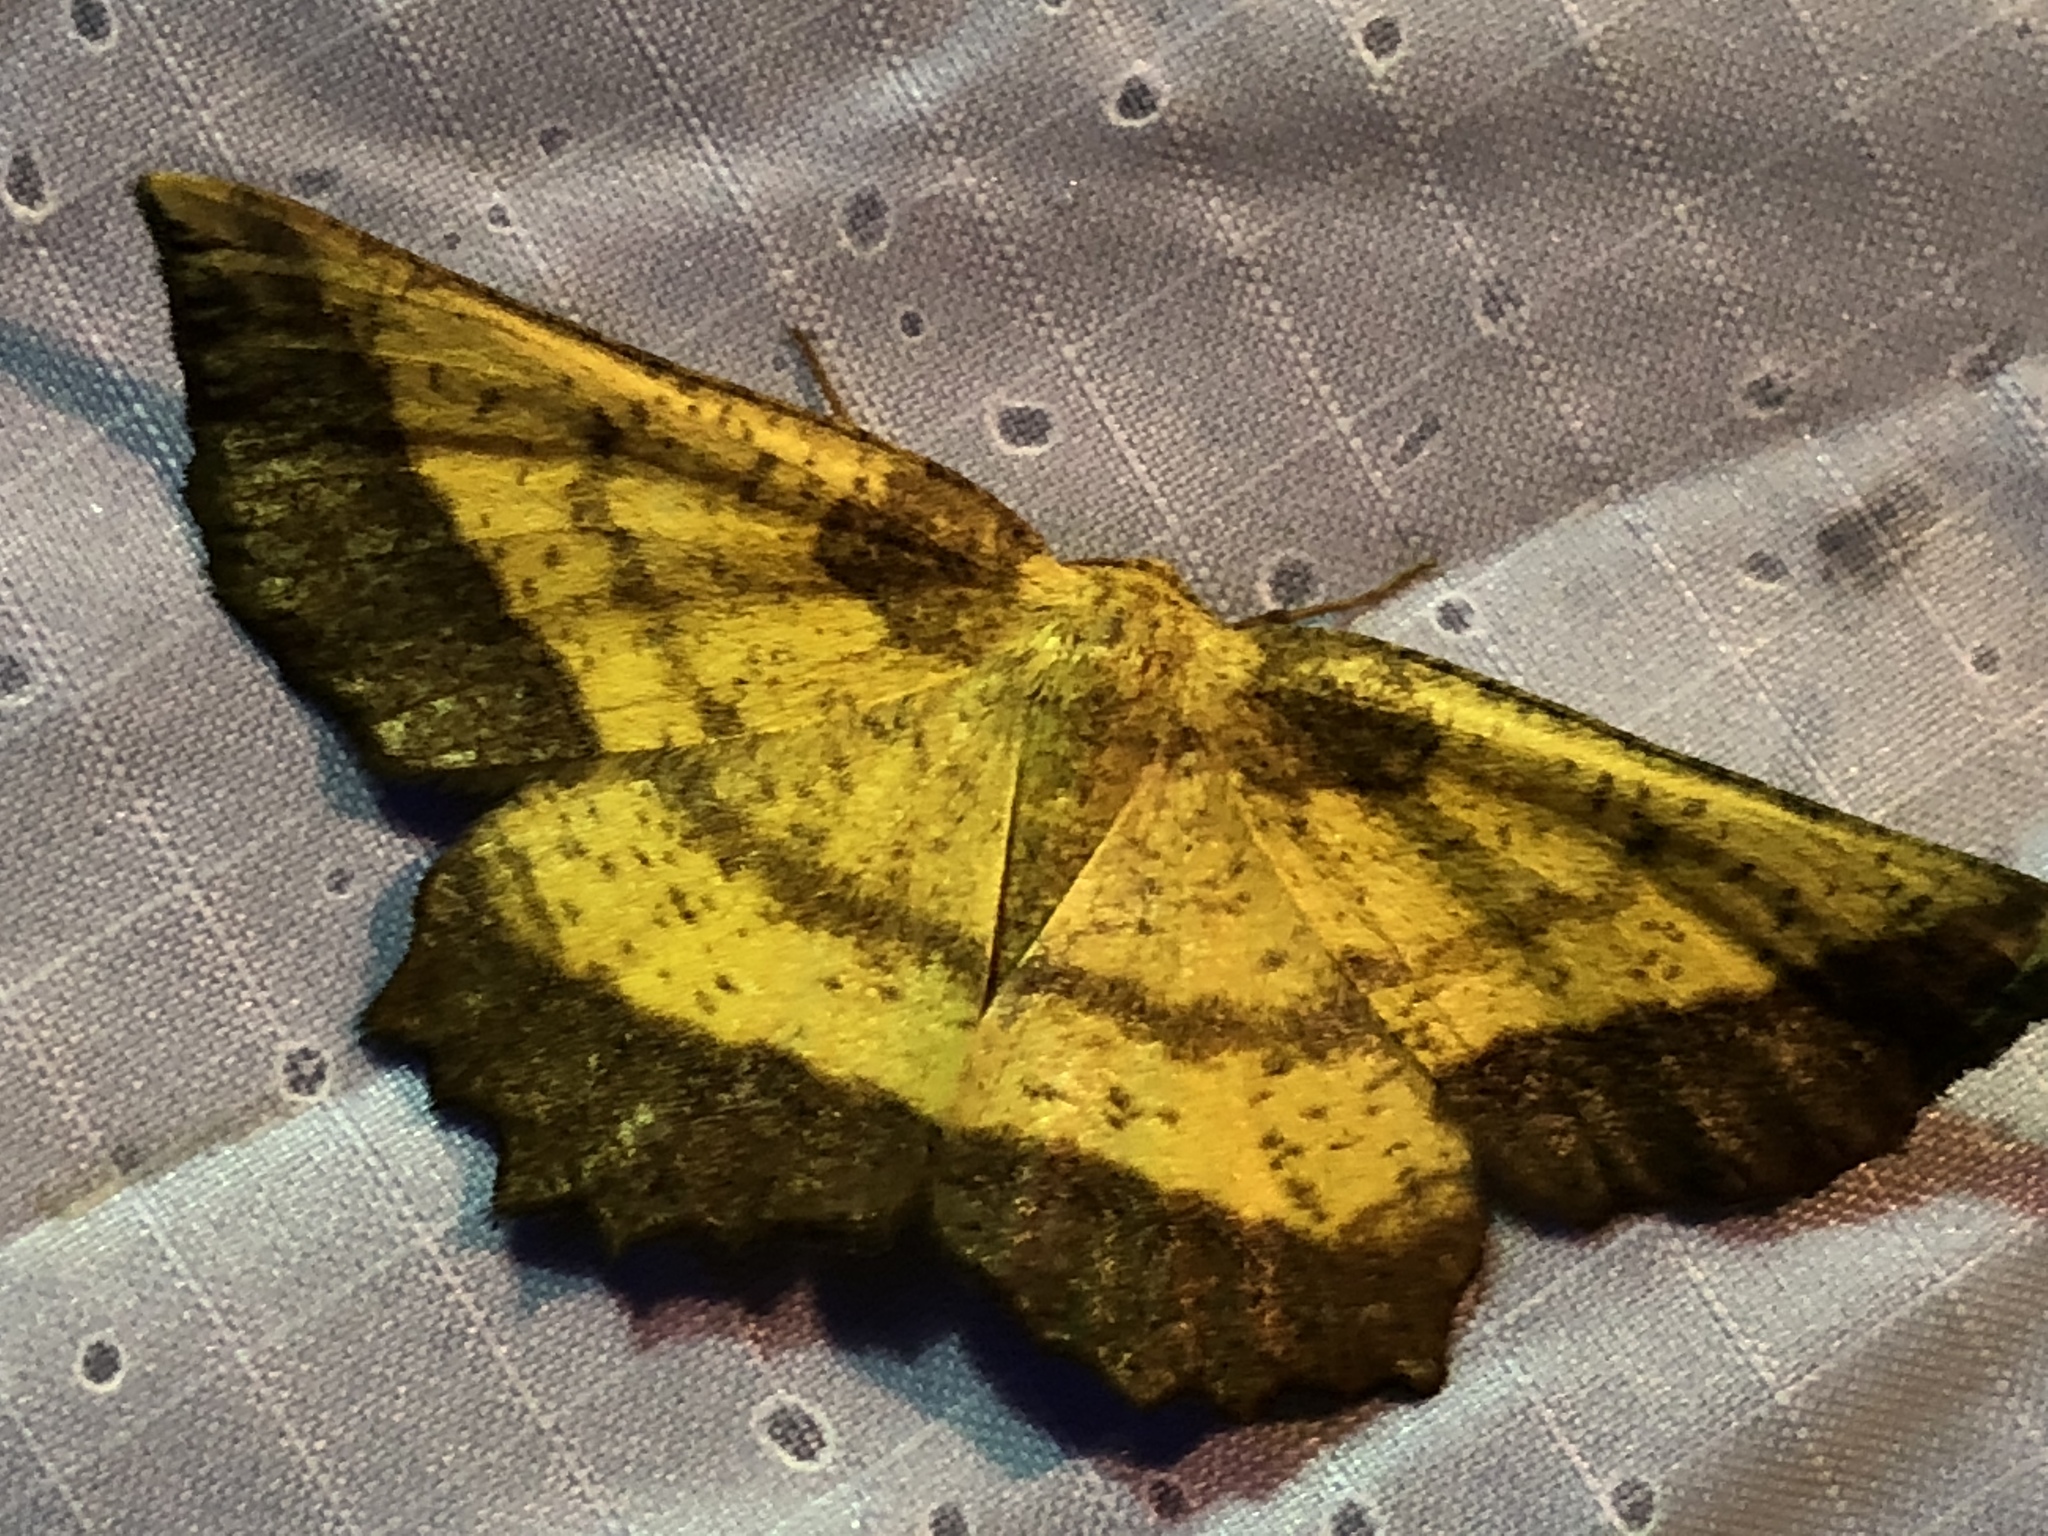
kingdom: Animalia
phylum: Arthropoda
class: Insecta
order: Lepidoptera
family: Geometridae
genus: Euchlaena
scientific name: Euchlaena serrata
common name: Saw wing
